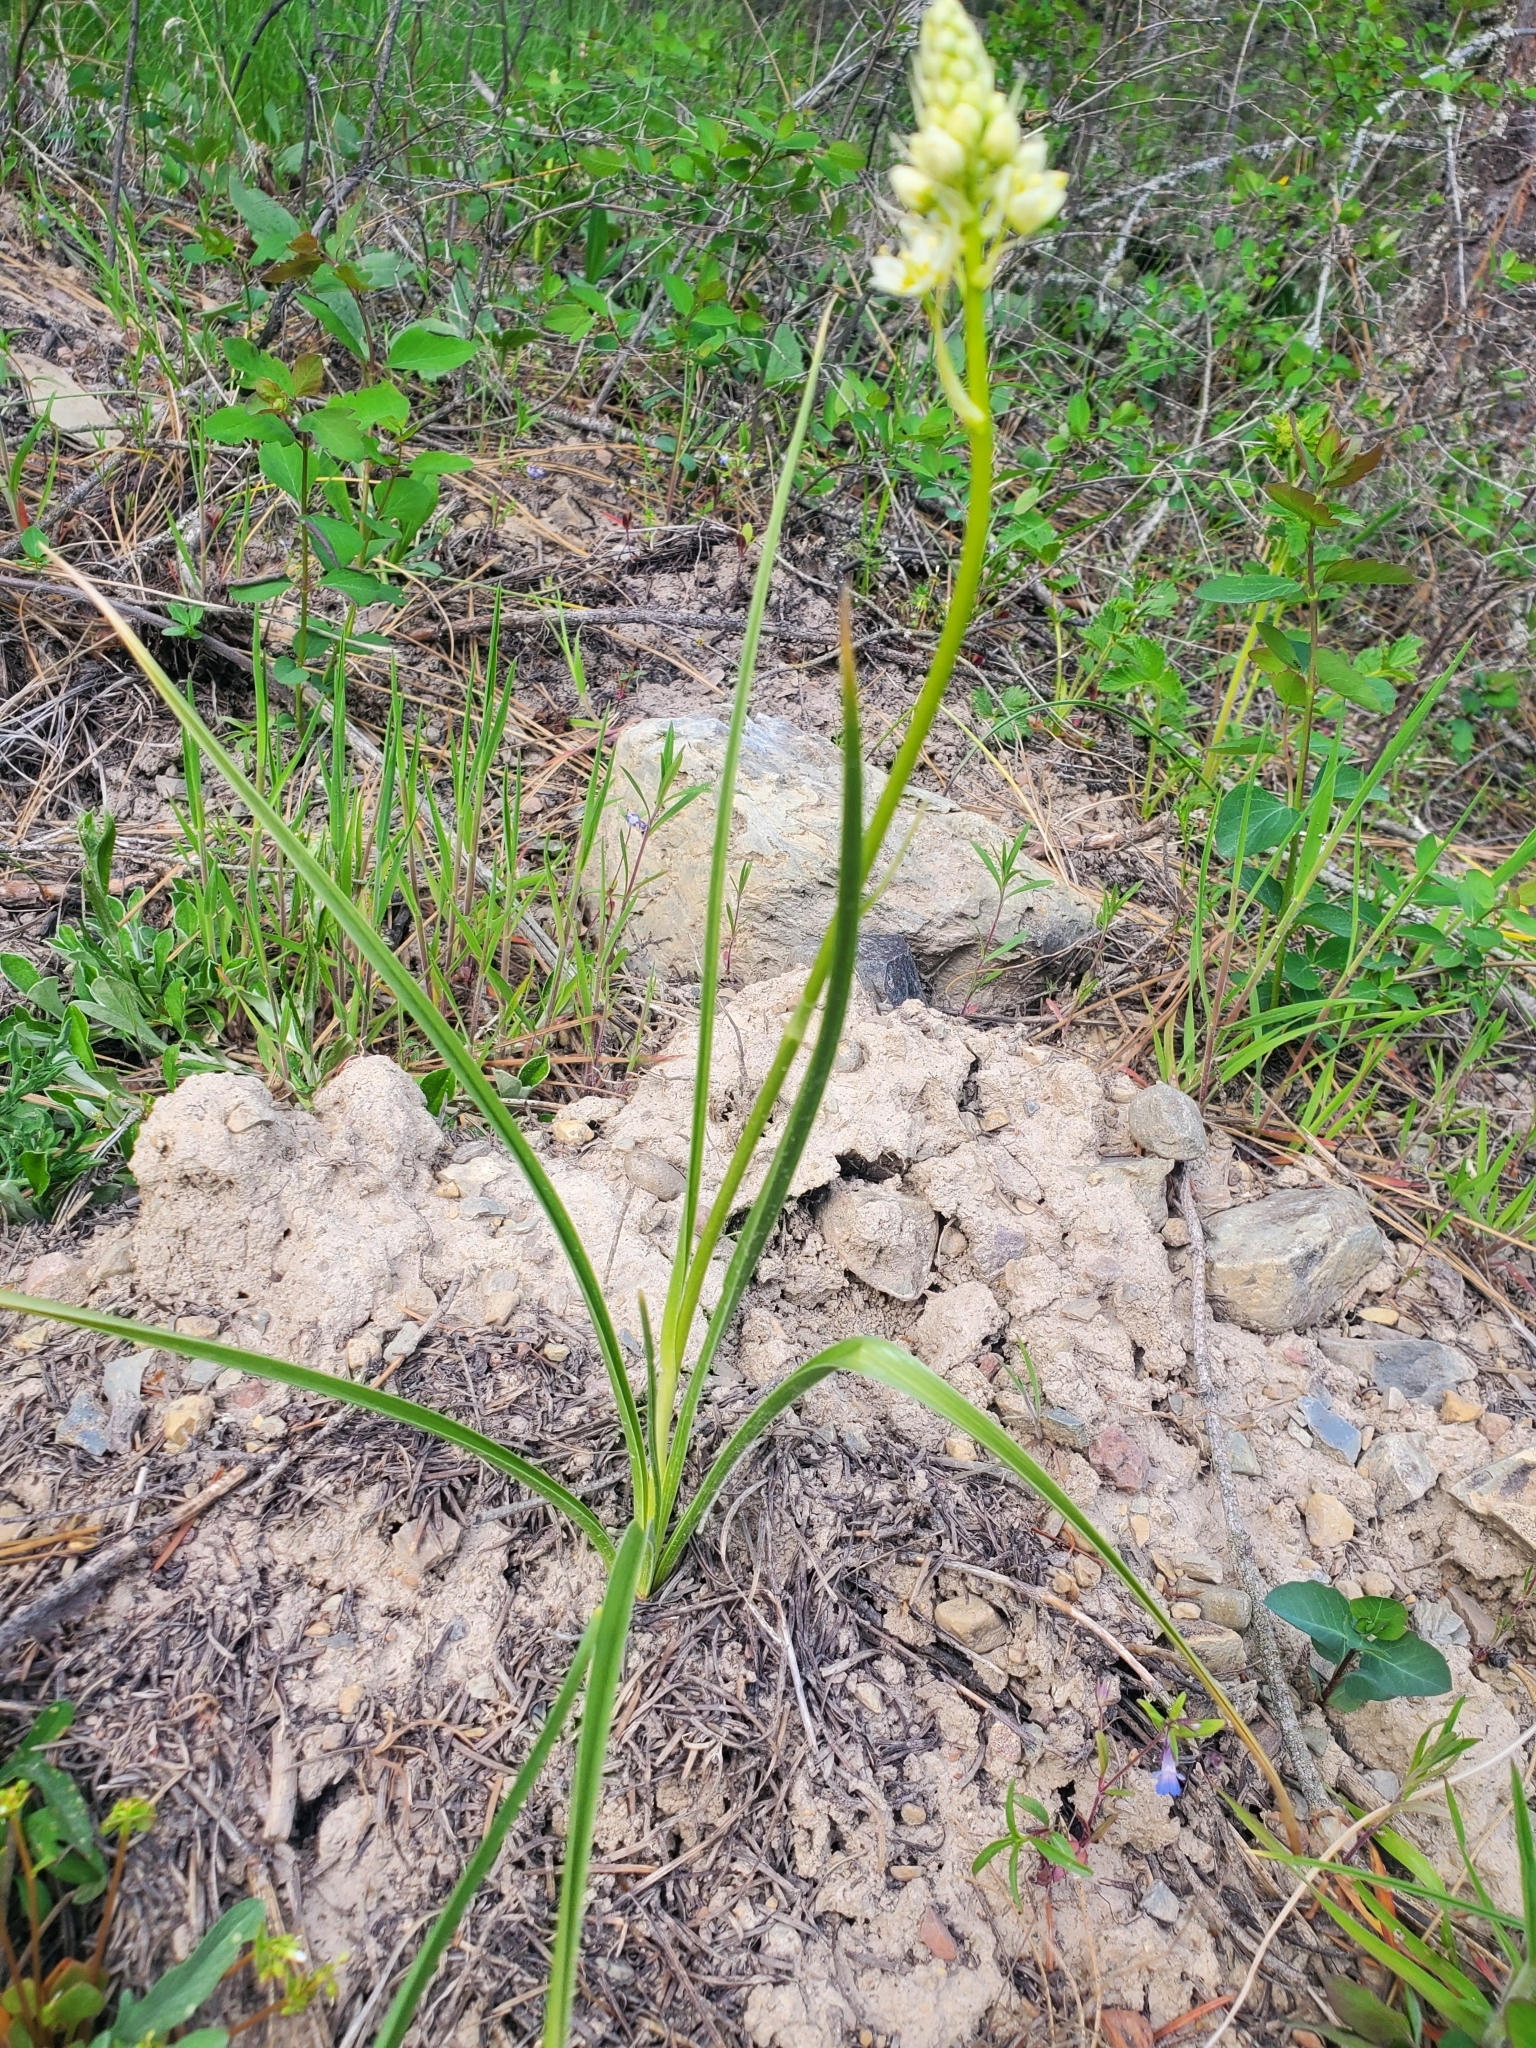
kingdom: Plantae
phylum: Tracheophyta
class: Liliopsida
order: Liliales
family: Melanthiaceae
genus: Toxicoscordion
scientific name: Toxicoscordion venenosum
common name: Meadow death camas
